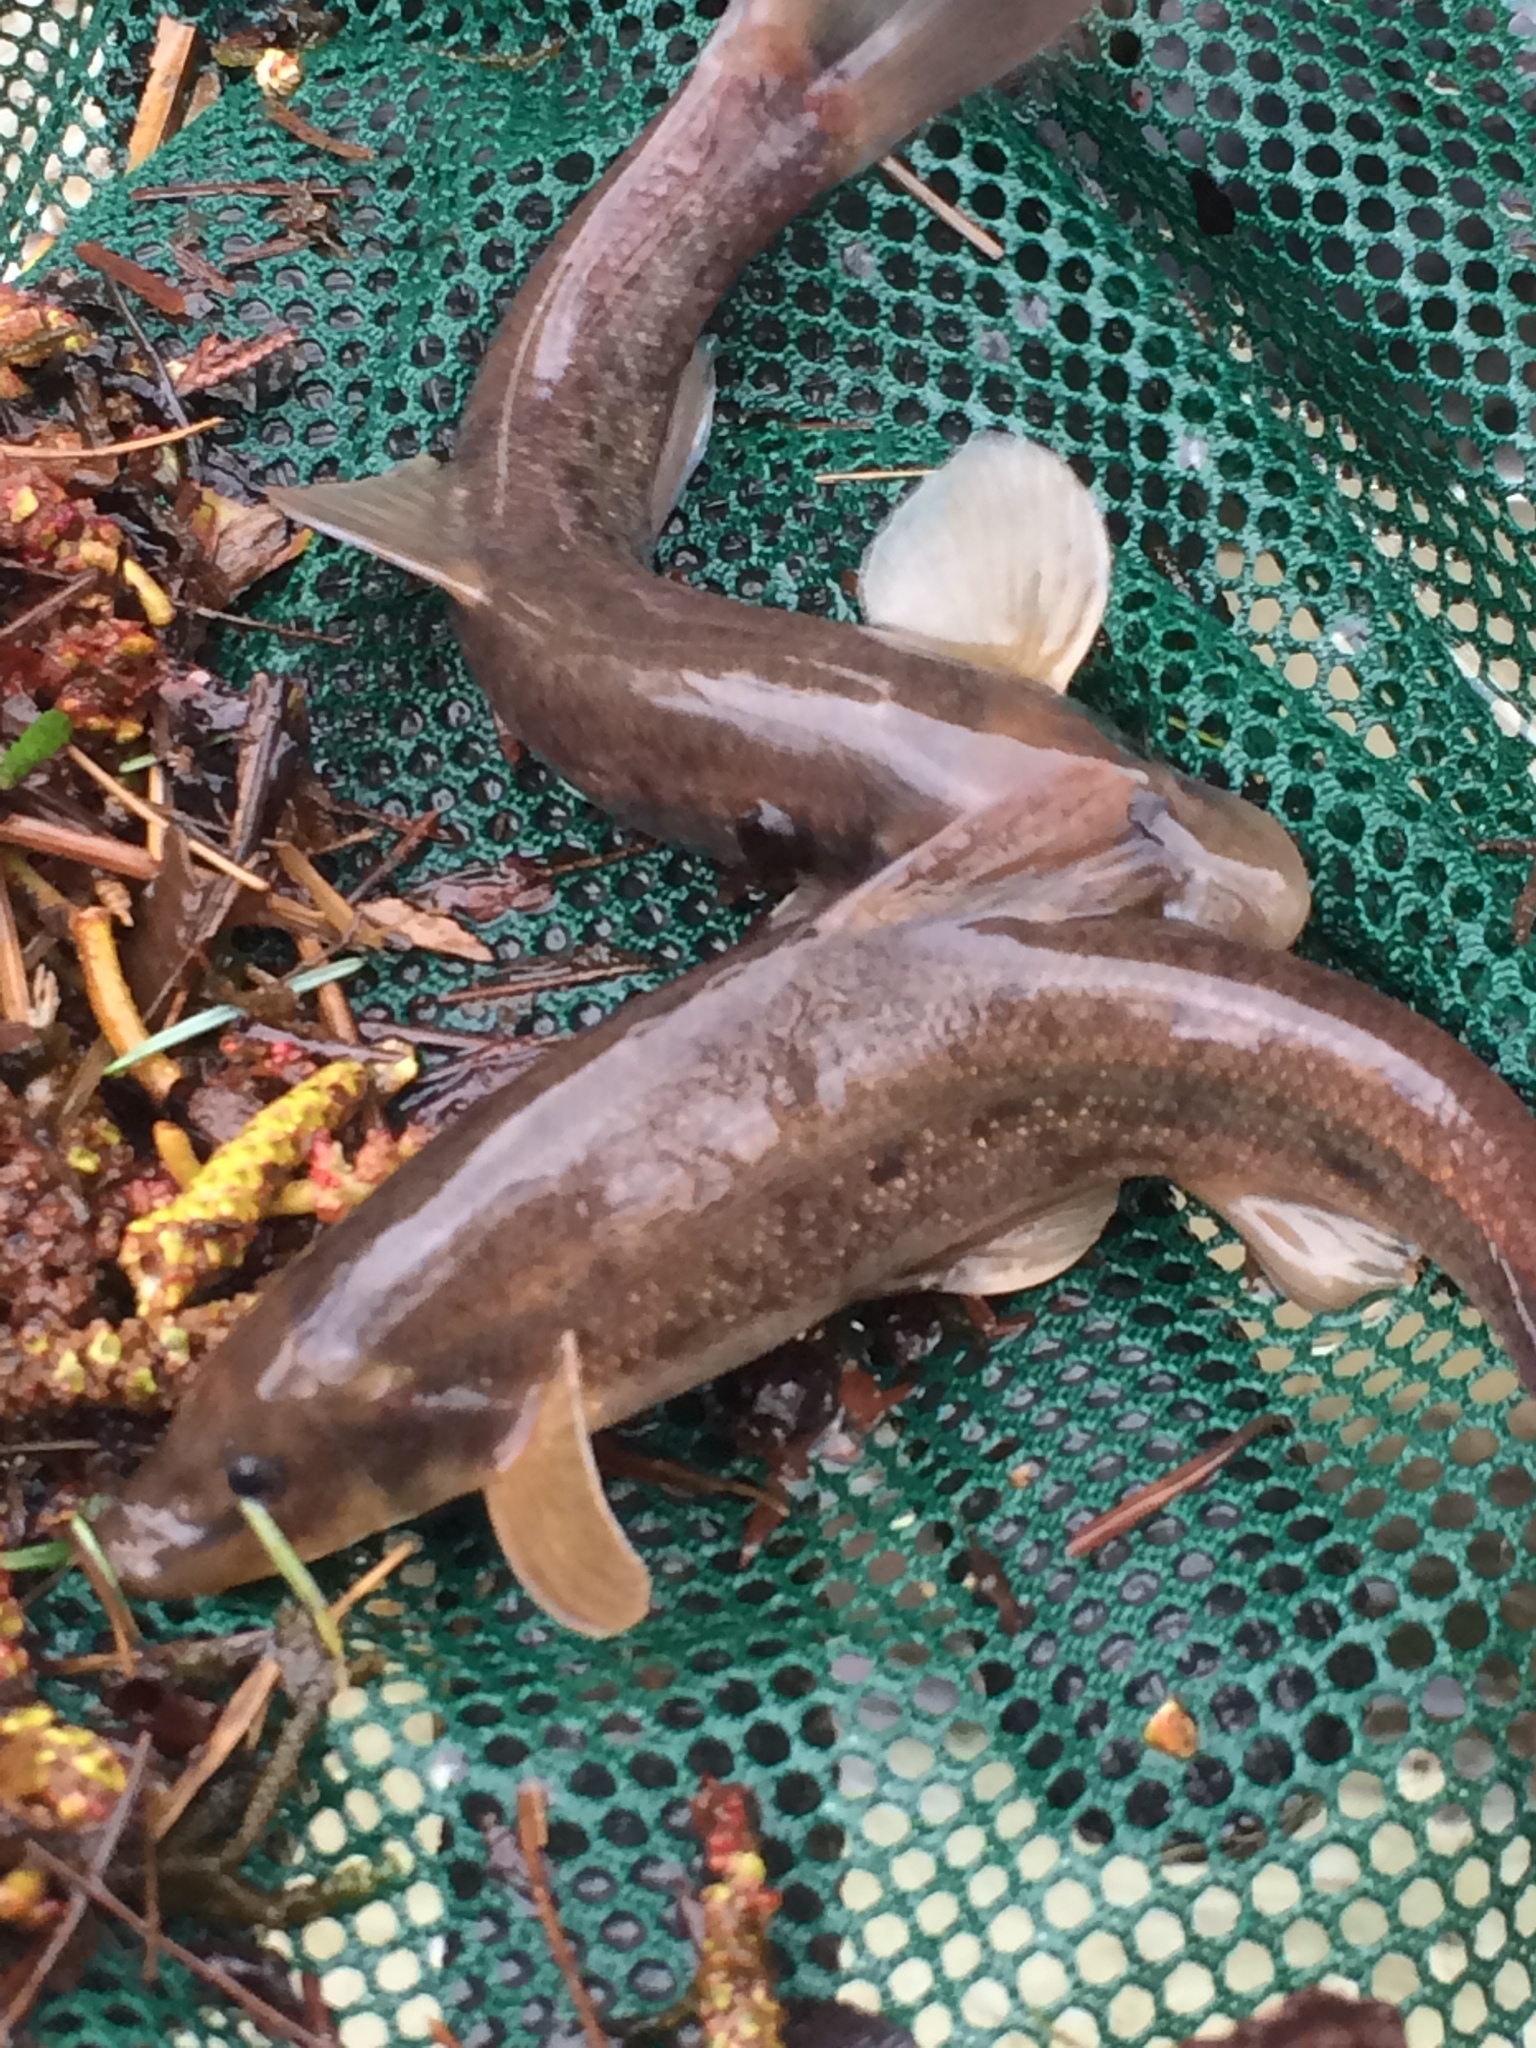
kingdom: Animalia
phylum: Chordata
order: Cypriniformes
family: Cyprinidae
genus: Rhinichthys
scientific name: Rhinichthys cataractae
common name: Longnose dace
